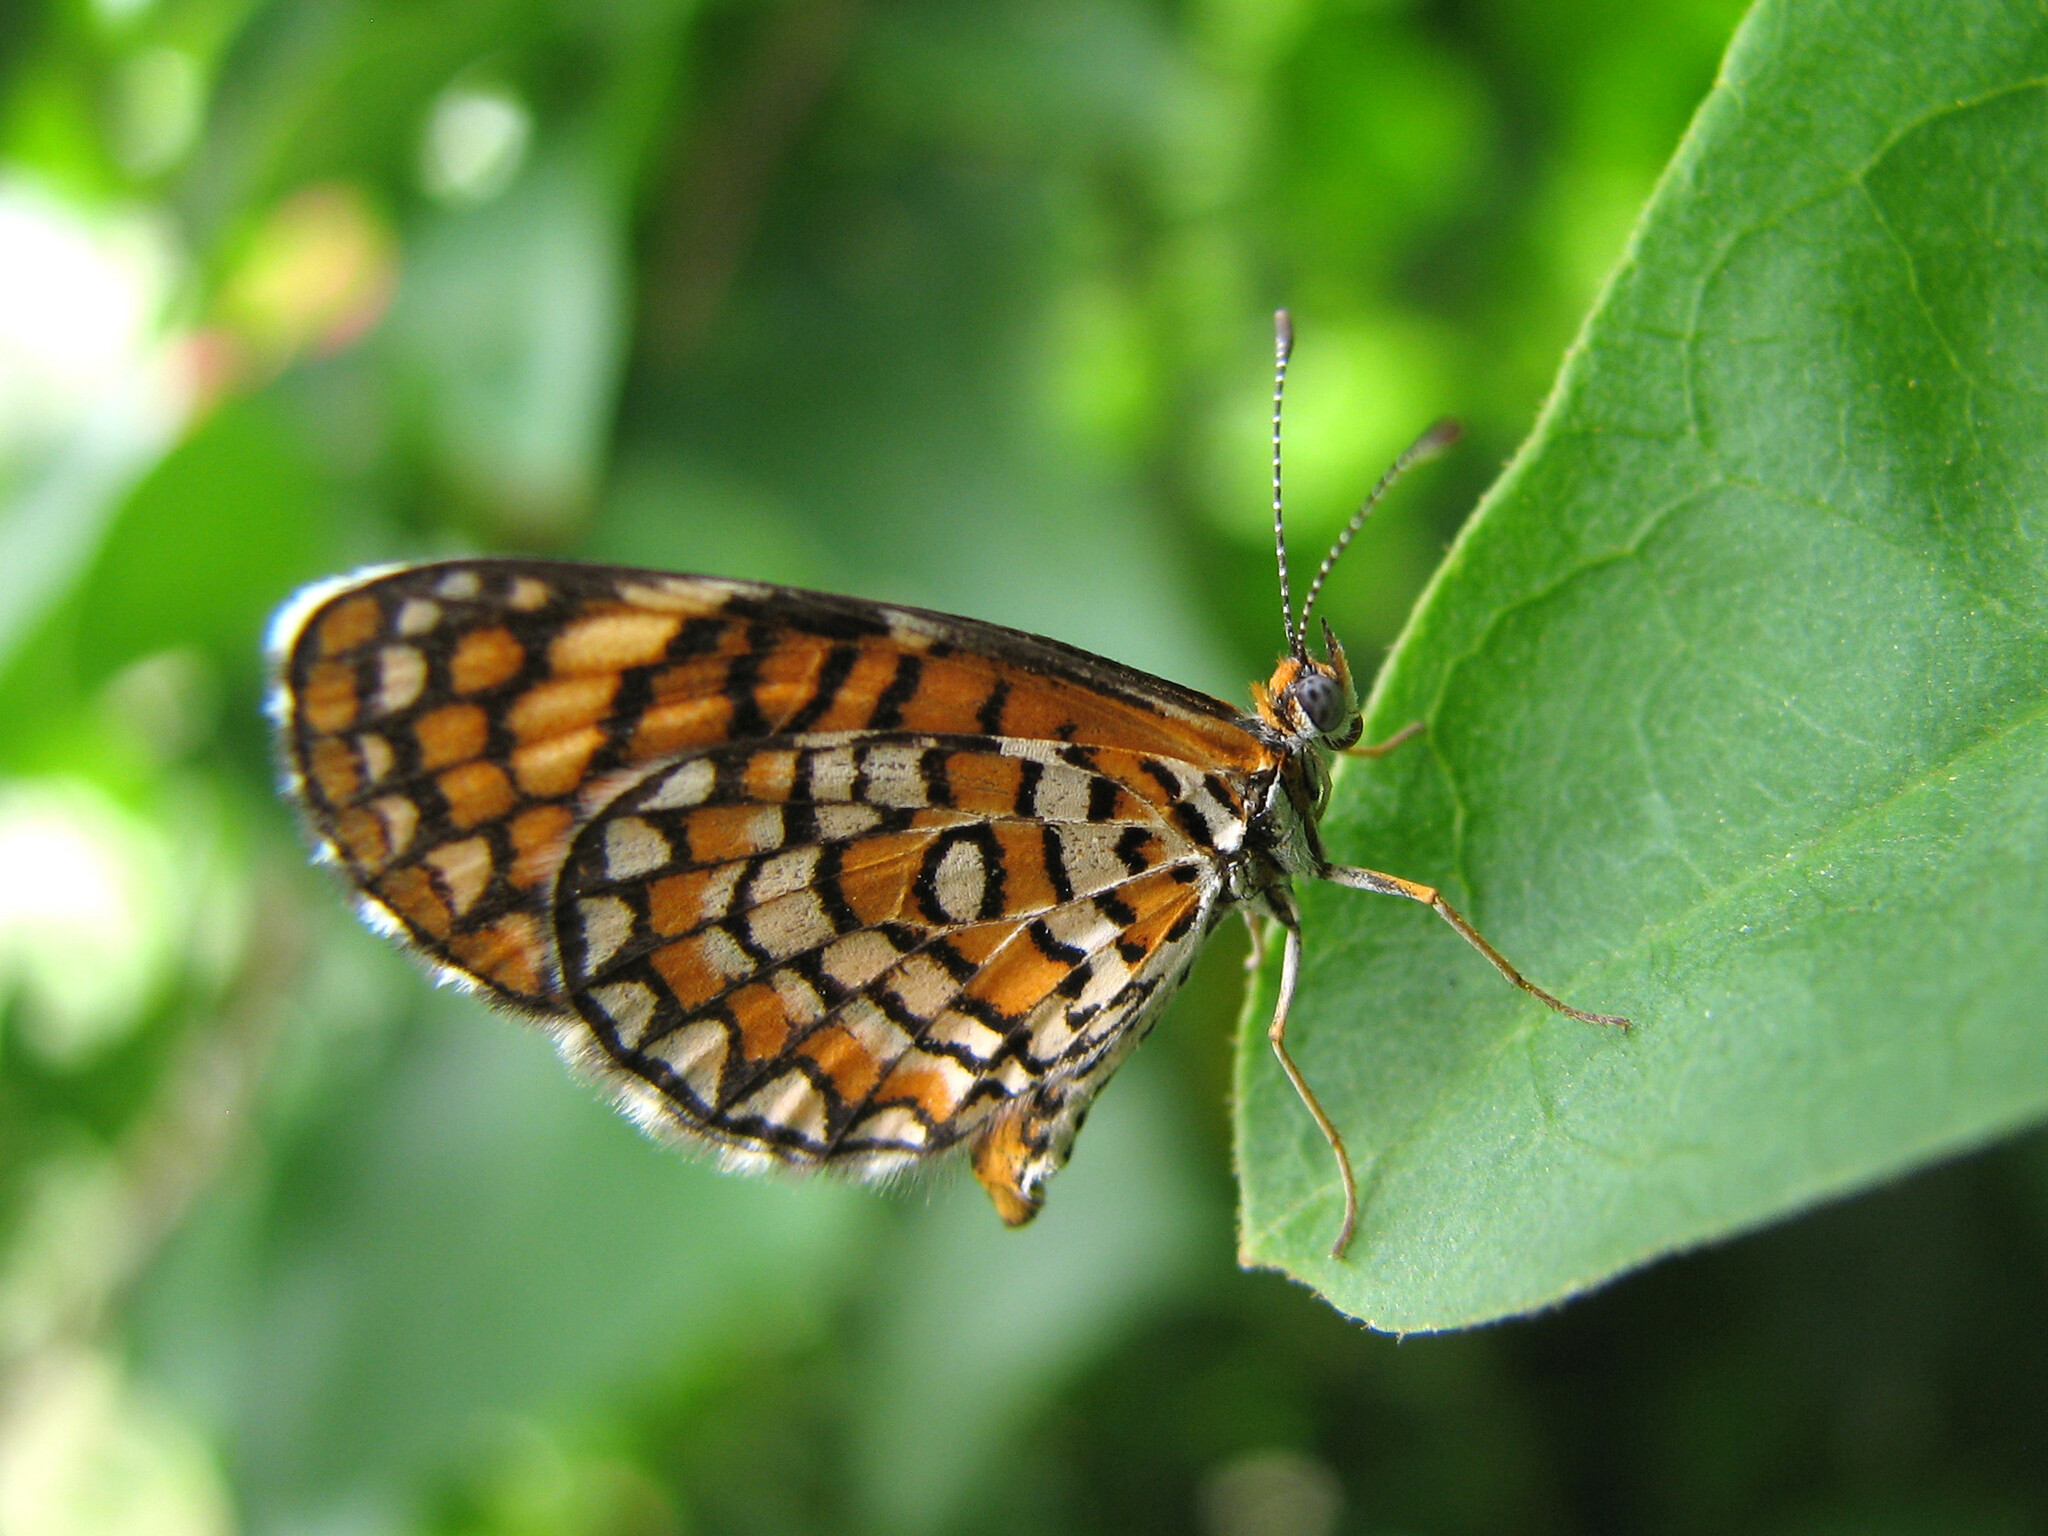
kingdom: Animalia
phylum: Arthropoda
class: Insecta
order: Lepidoptera
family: Nymphalidae
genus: Dymasia
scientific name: Dymasia dymas
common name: Tiny checkerspot
